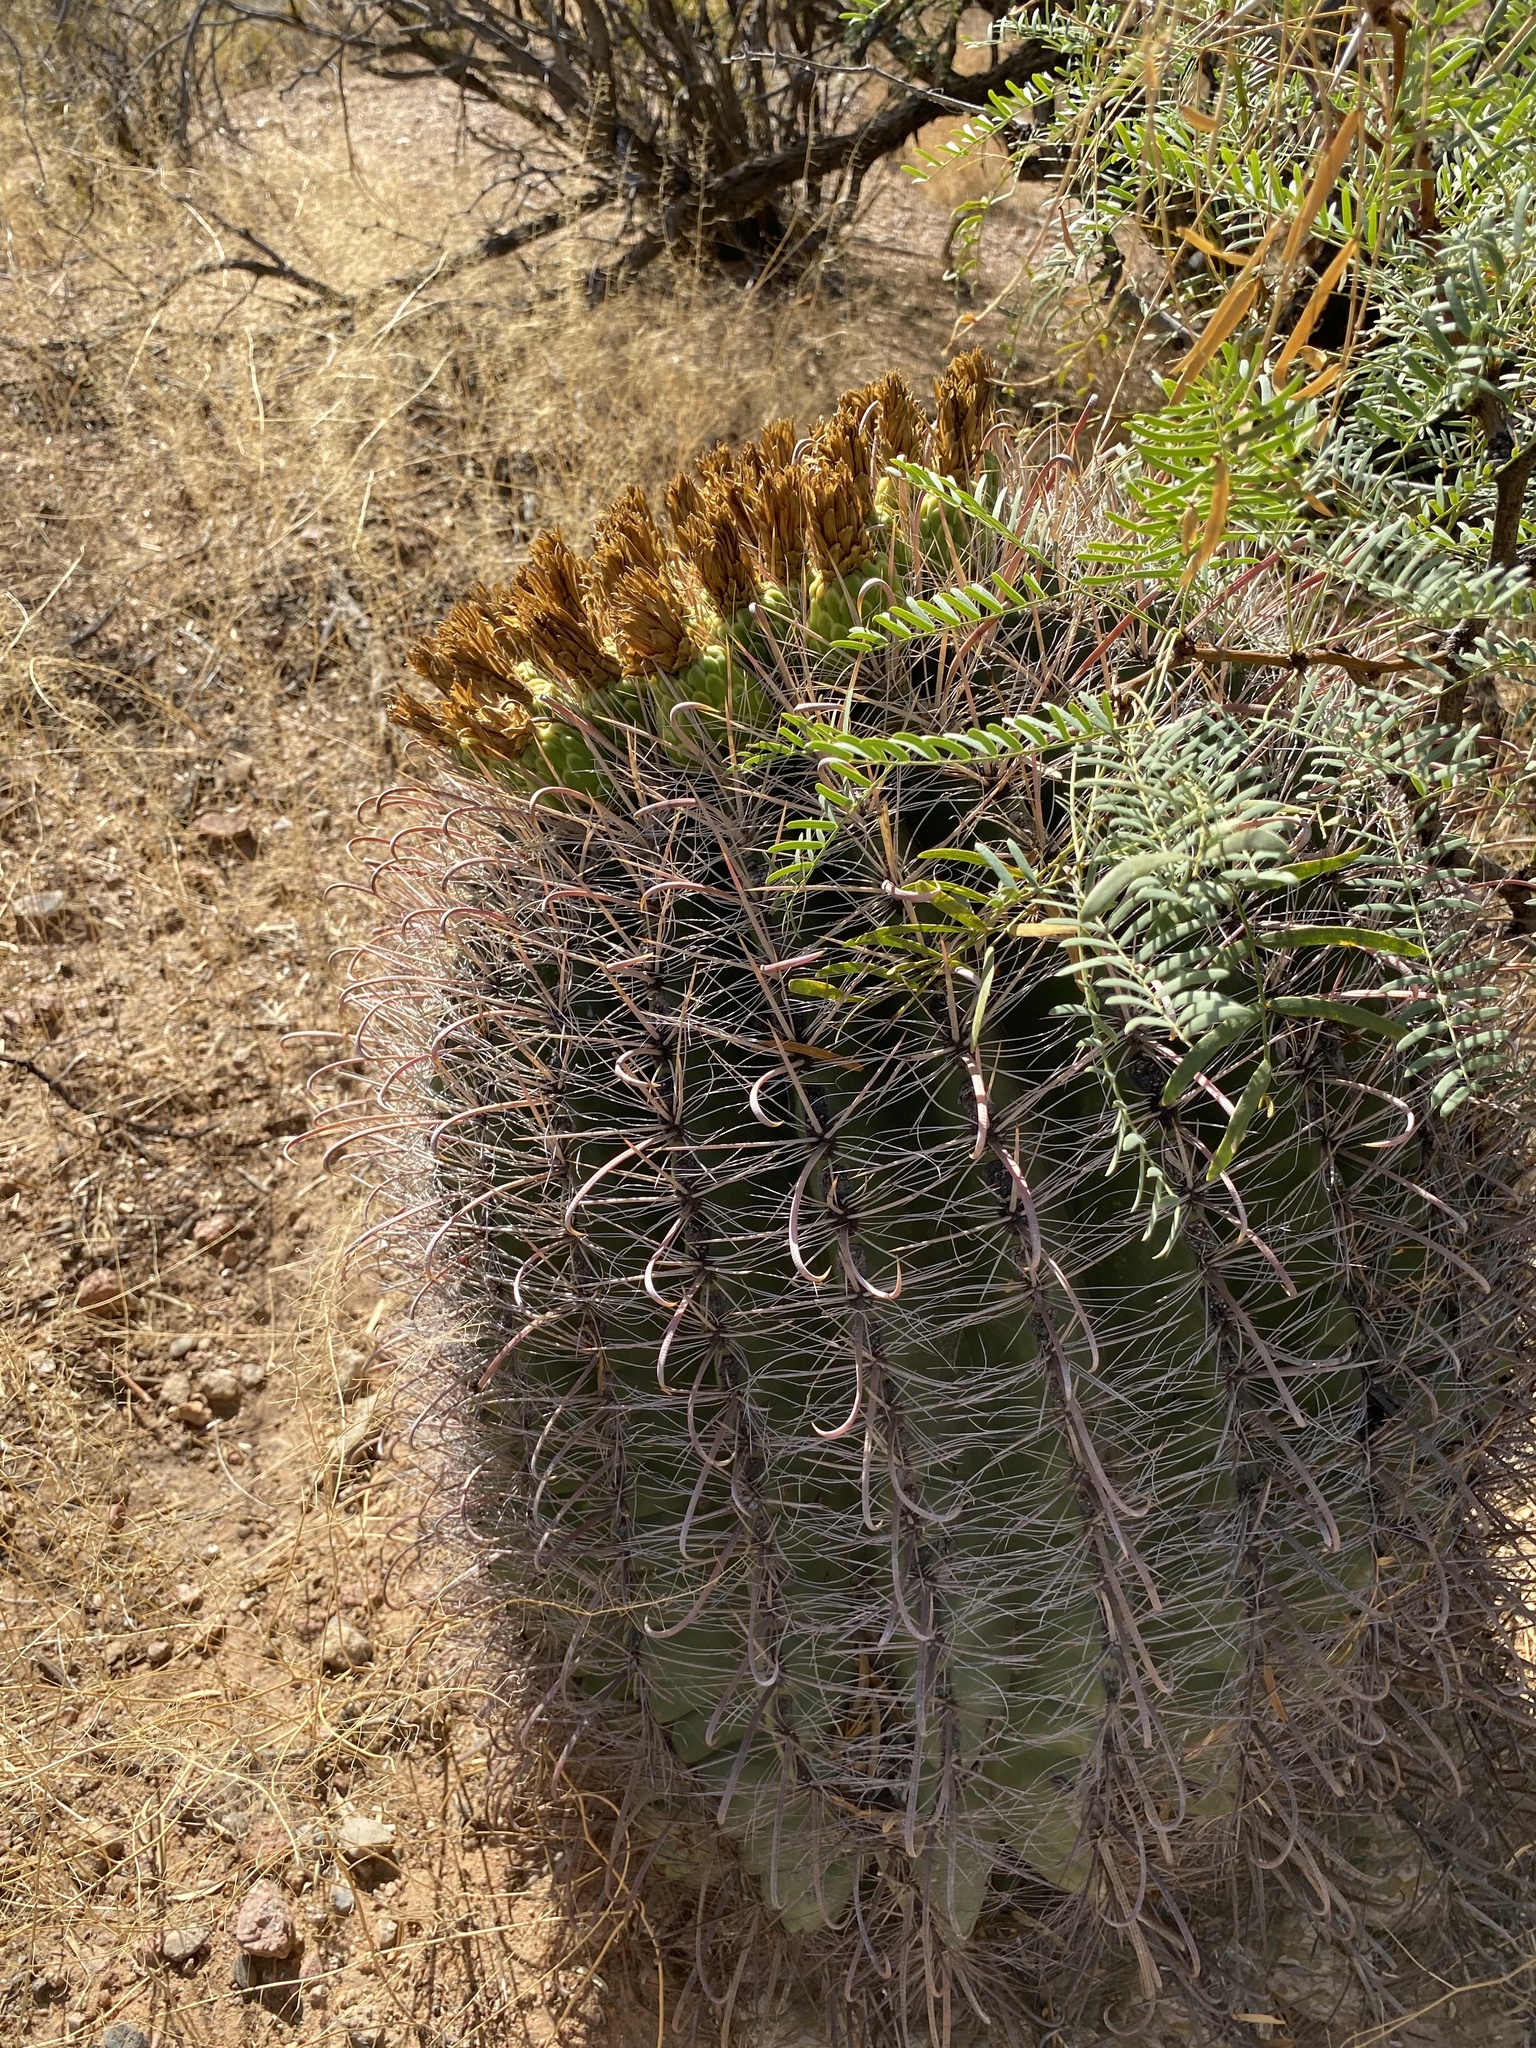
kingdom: Plantae
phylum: Tracheophyta
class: Magnoliopsida
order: Caryophyllales
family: Cactaceae
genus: Ferocactus
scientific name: Ferocactus wislizeni
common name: Candy barrel cactus
